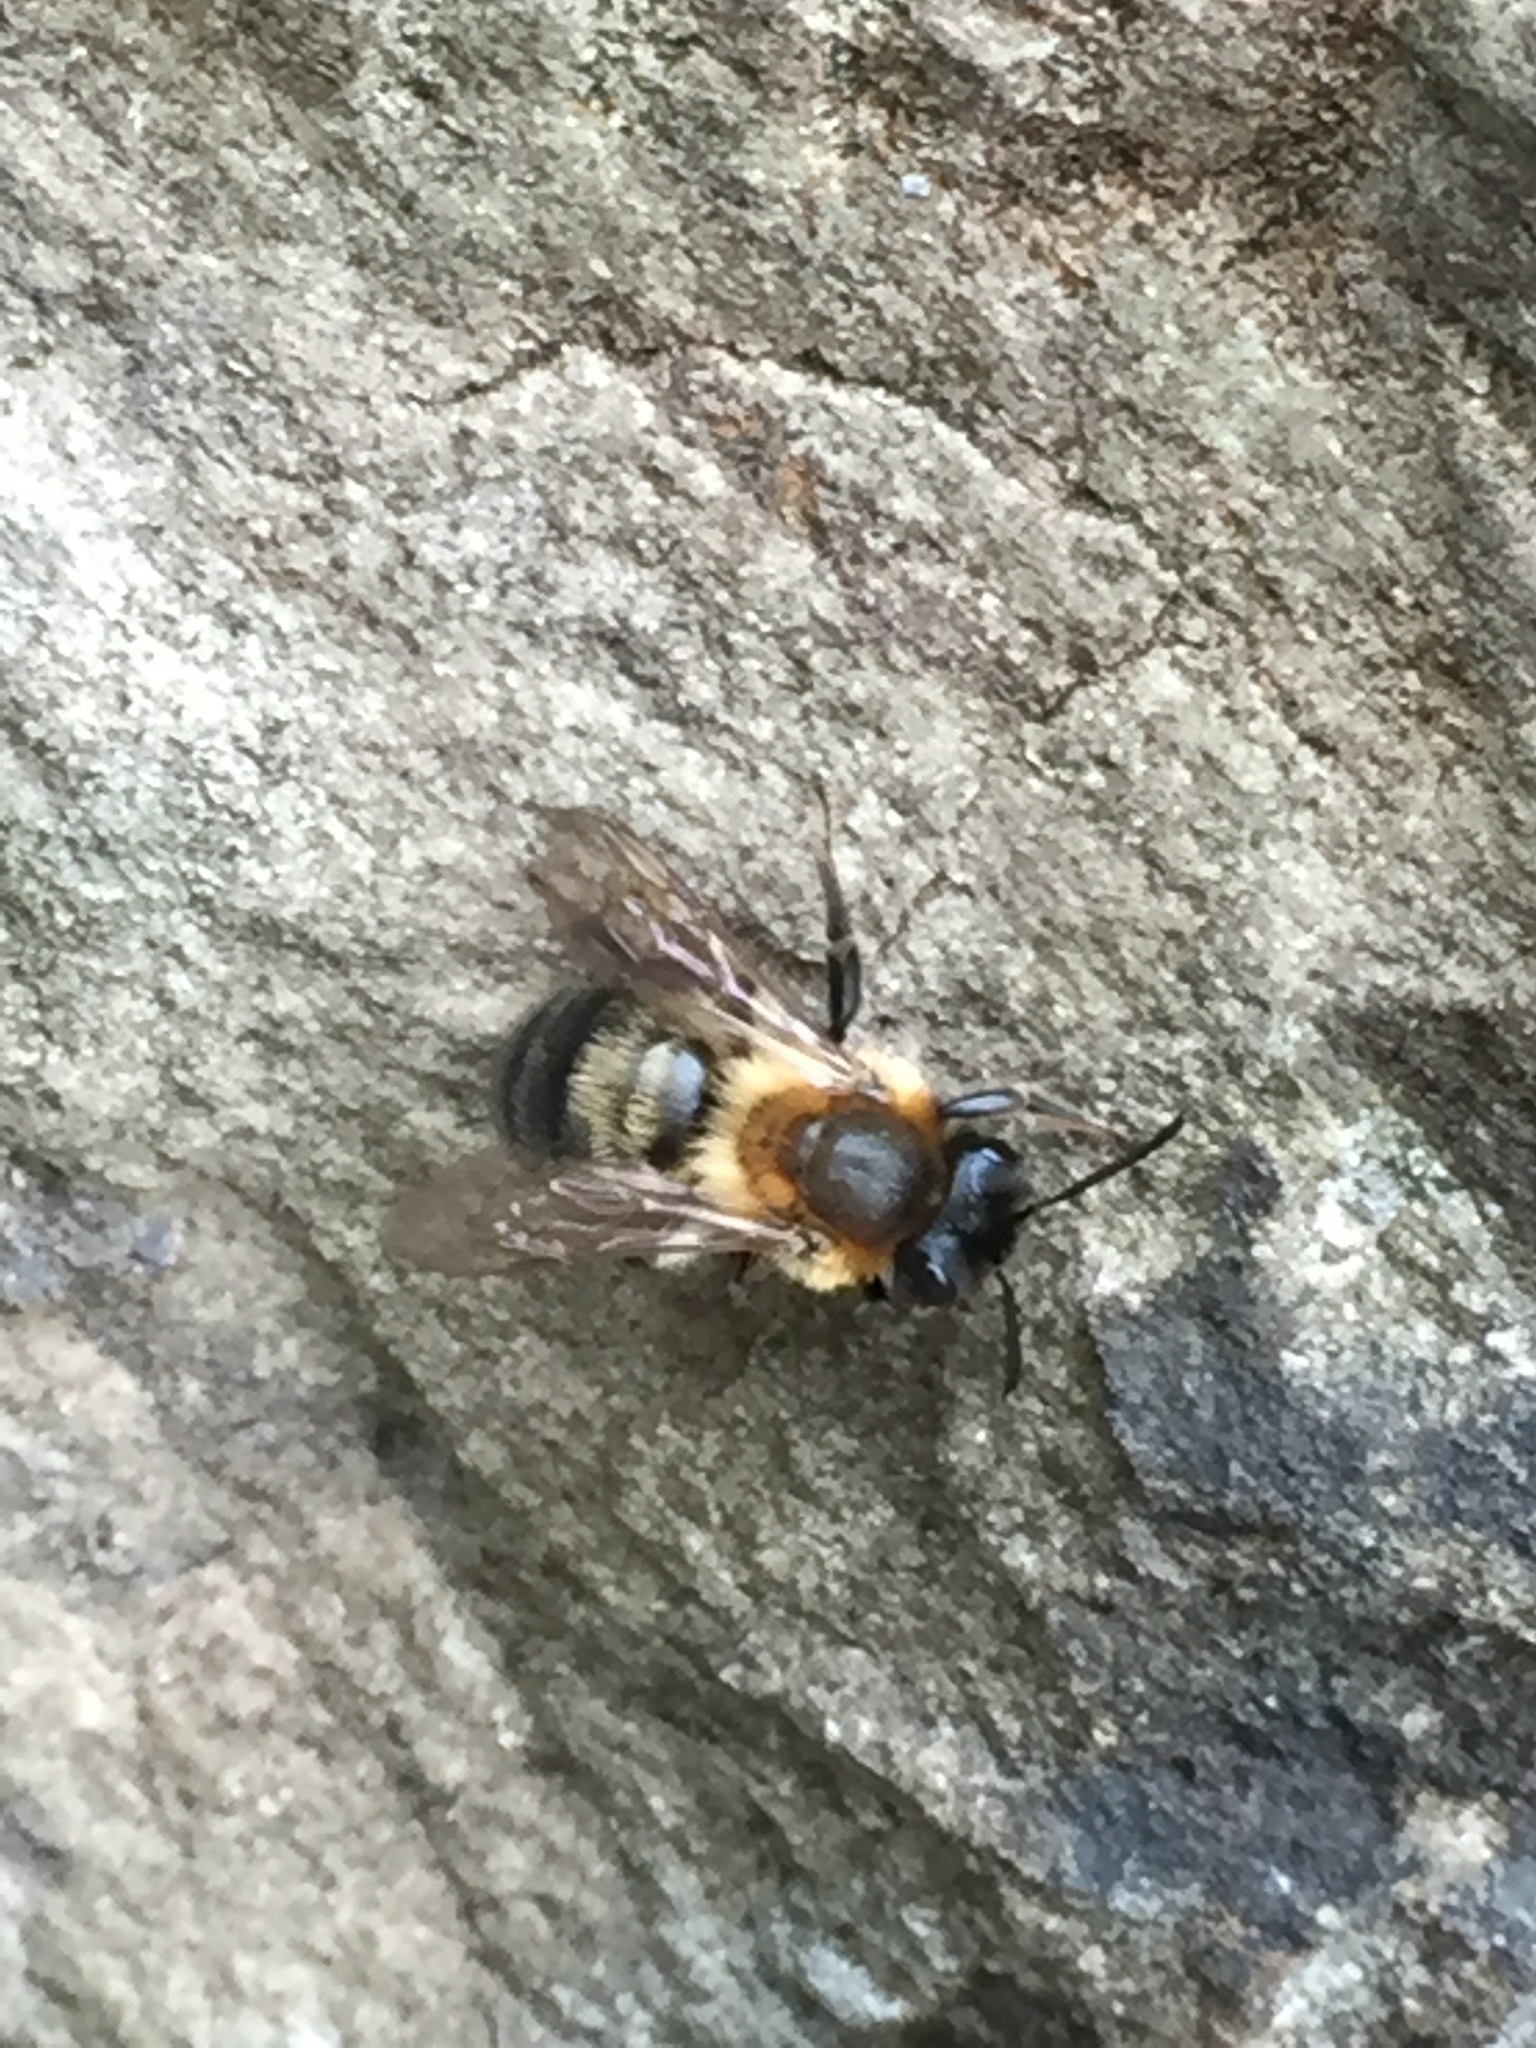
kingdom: Animalia
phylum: Arthropoda
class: Insecta
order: Hymenoptera
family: Andrenidae
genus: Andrena
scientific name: Andrena carantonica
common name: Chocolate mining bee
